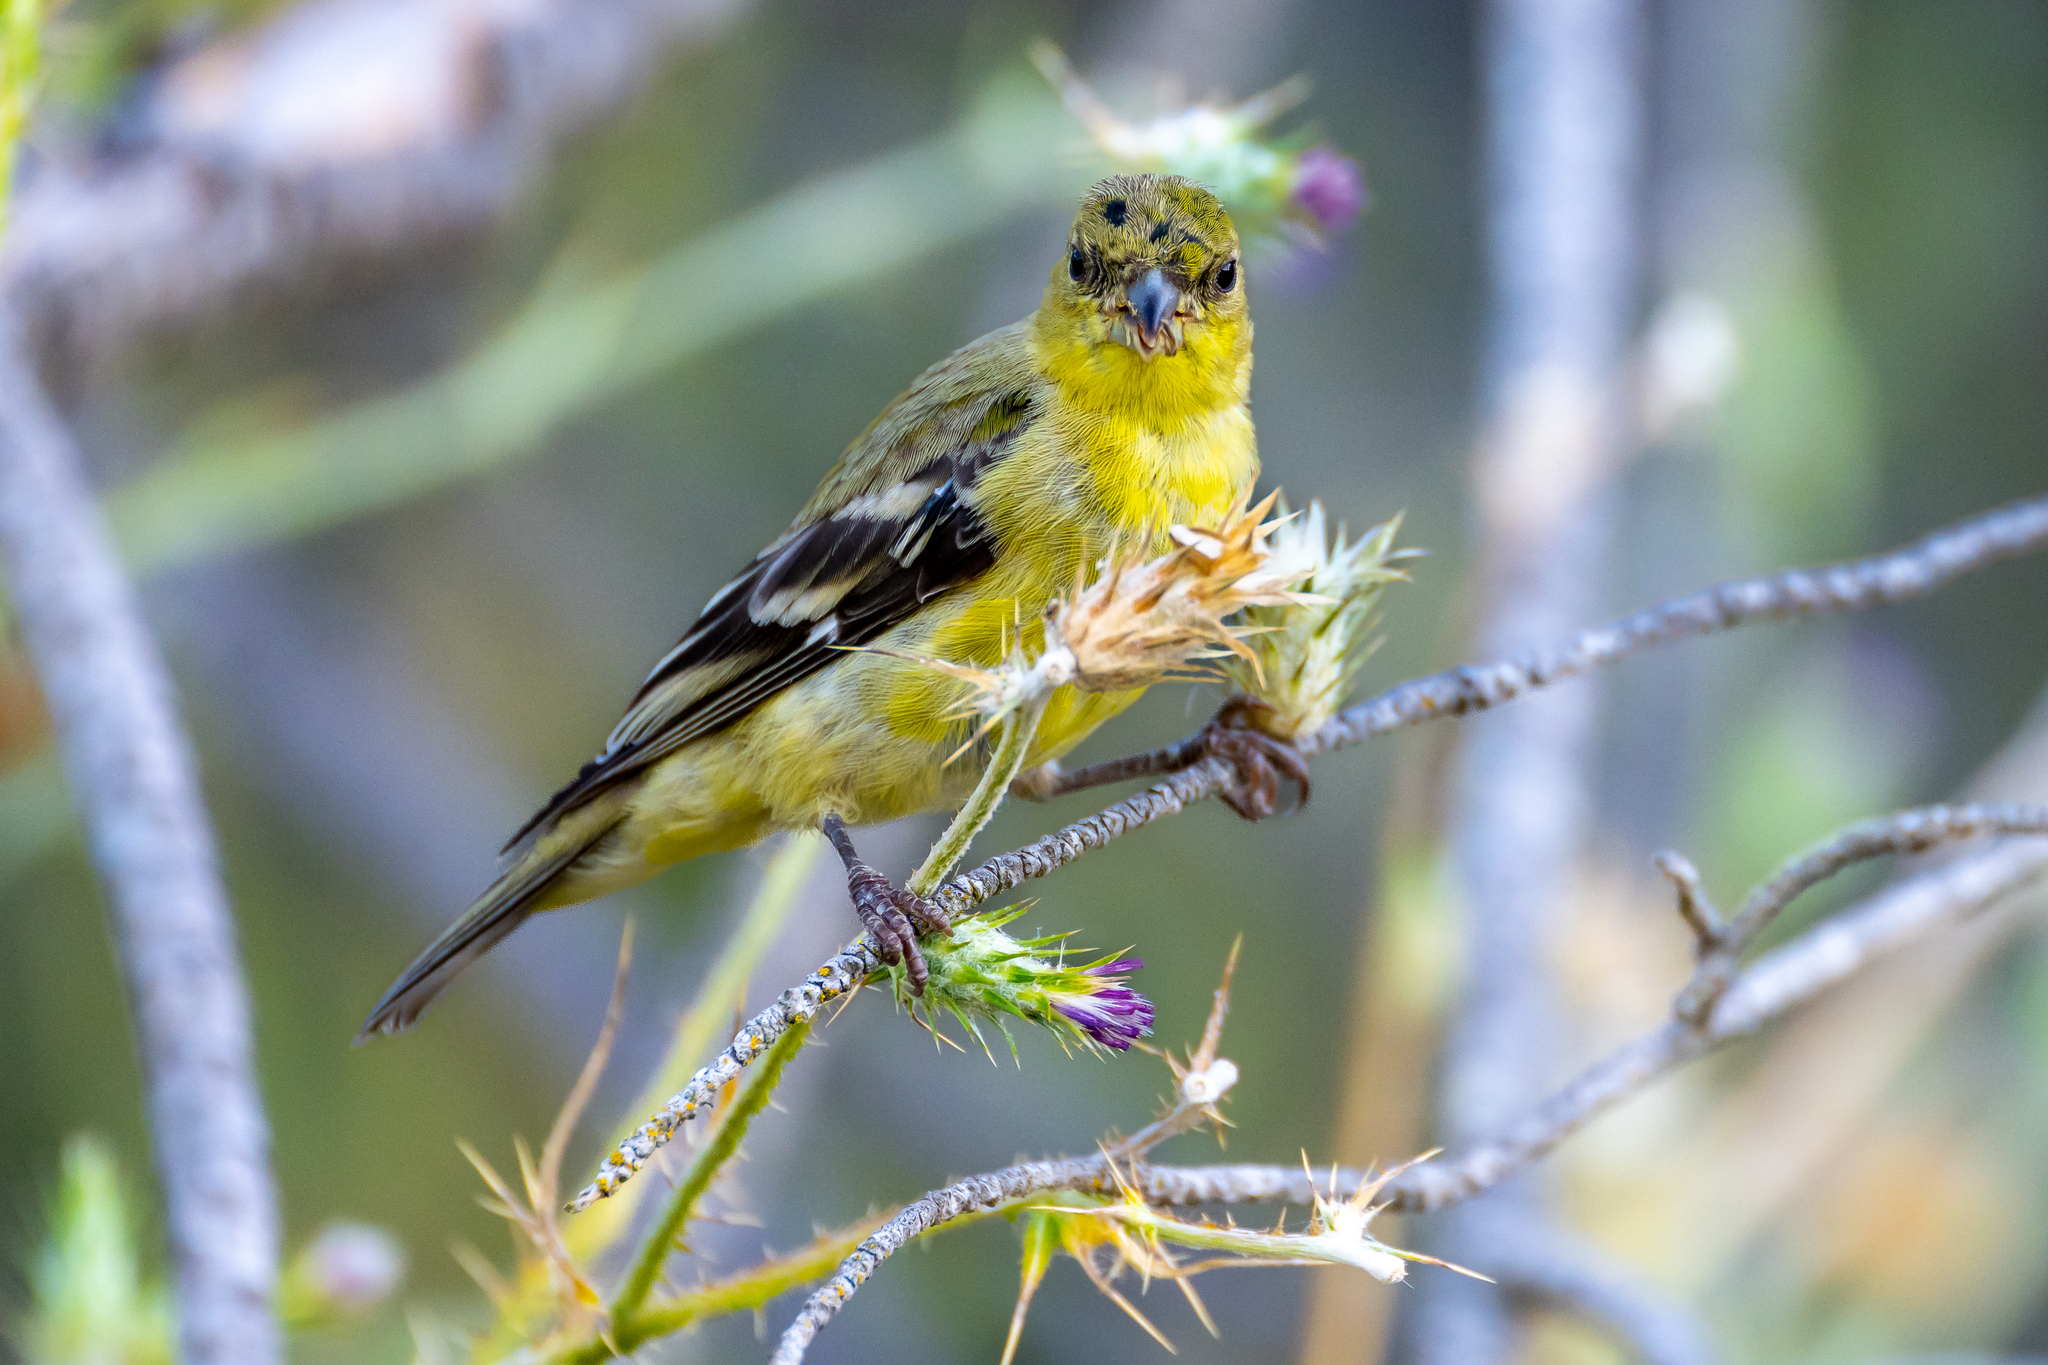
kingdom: Animalia
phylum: Chordata
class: Aves
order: Passeriformes
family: Fringillidae
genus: Spinus
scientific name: Spinus psaltria
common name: Lesser goldfinch
